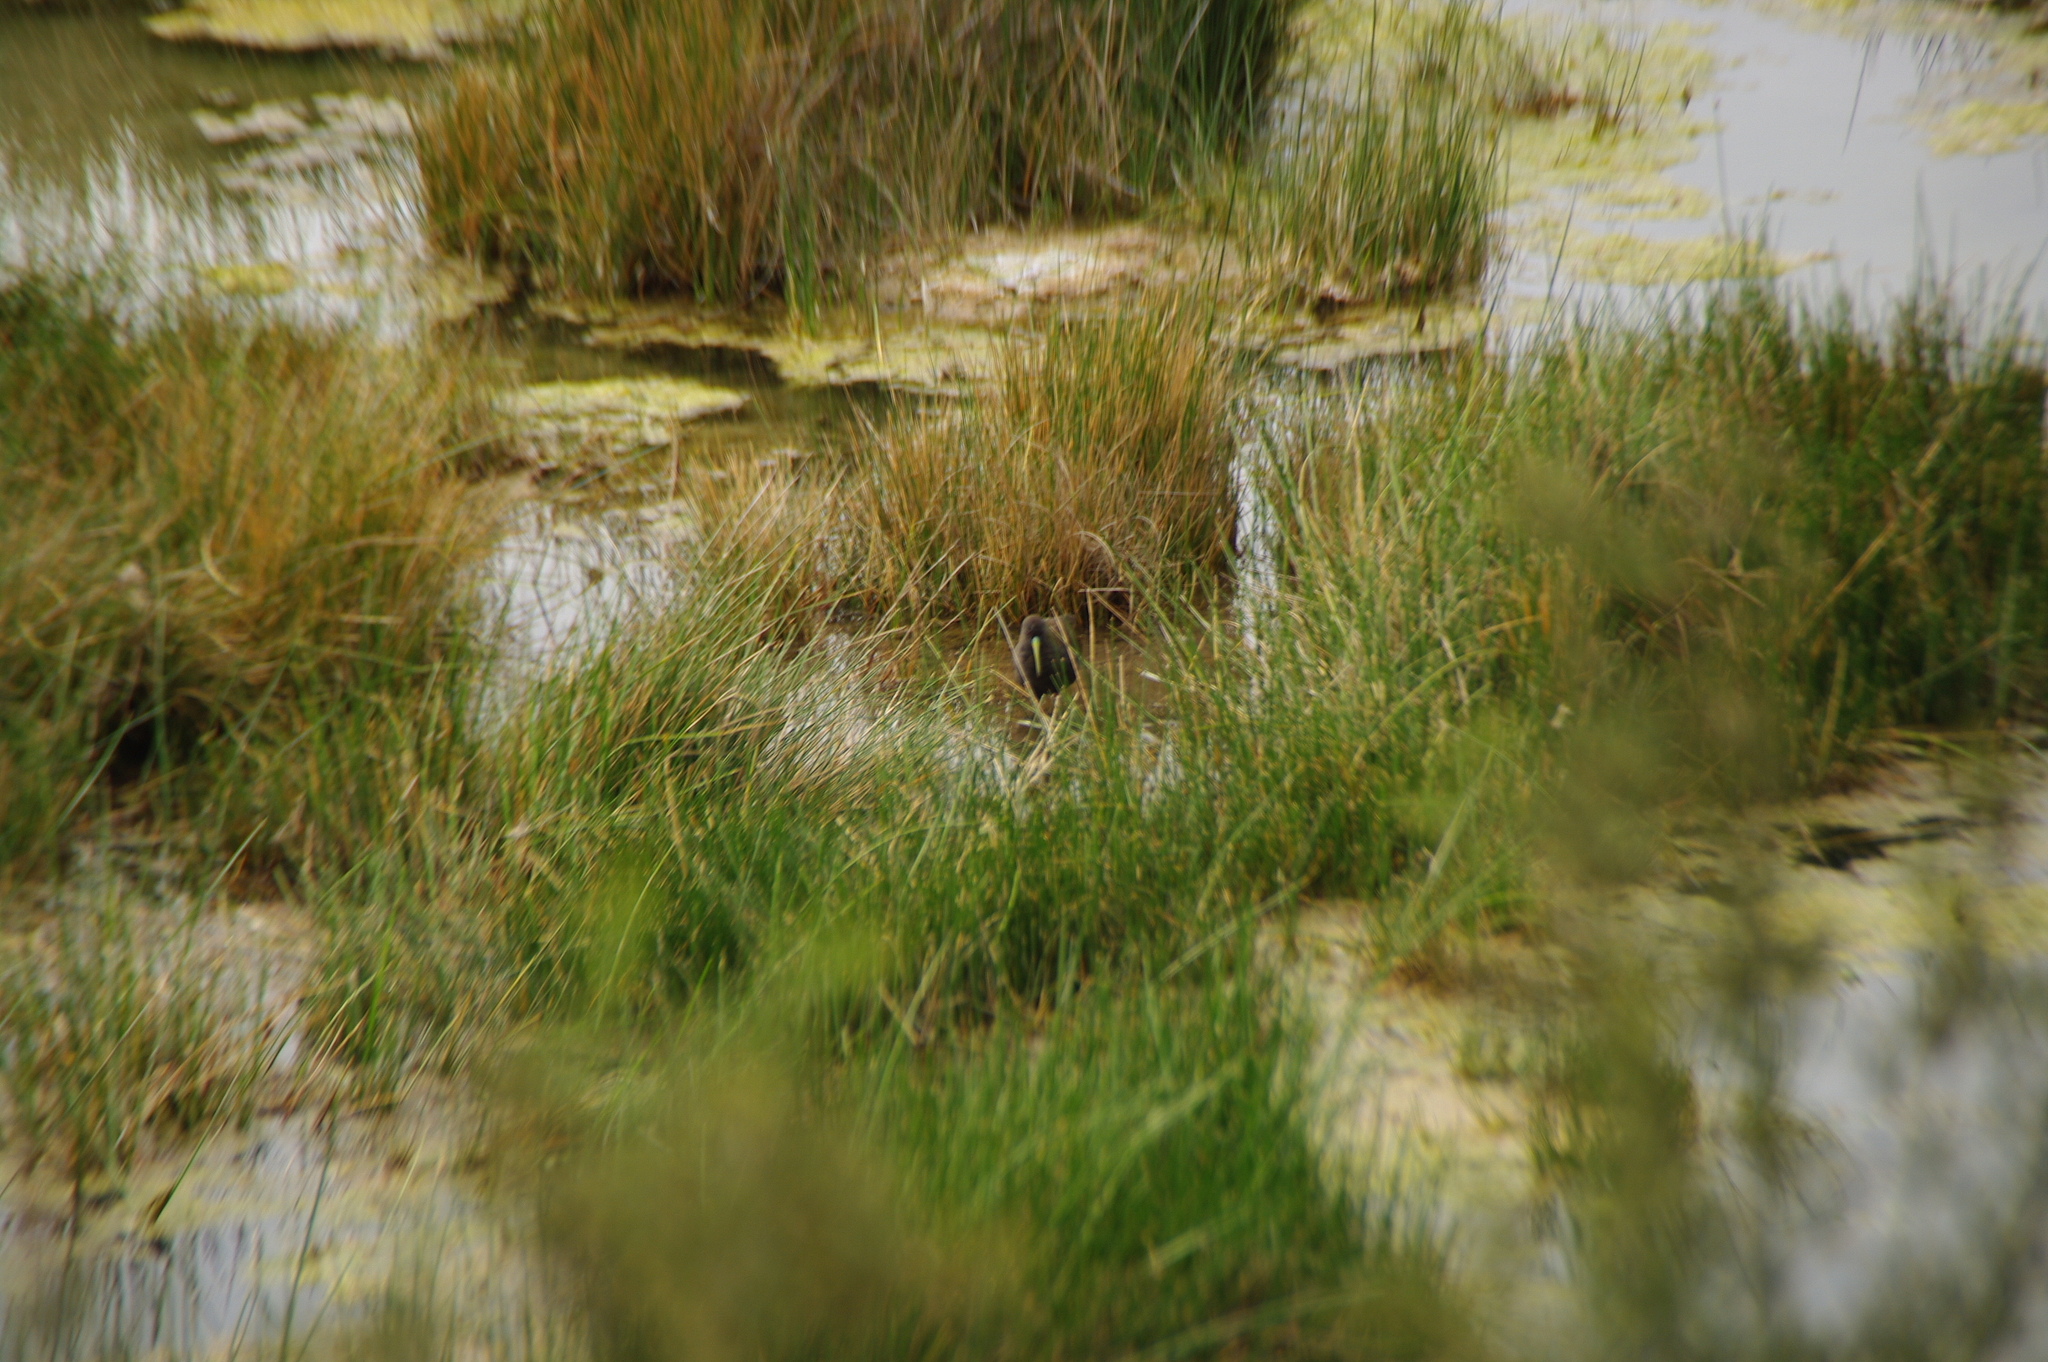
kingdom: Animalia
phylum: Chordata
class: Aves
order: Gruiformes
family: Rallidae
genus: Pardirallus
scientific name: Pardirallus sanguinolentus
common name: Plumbeous rail
